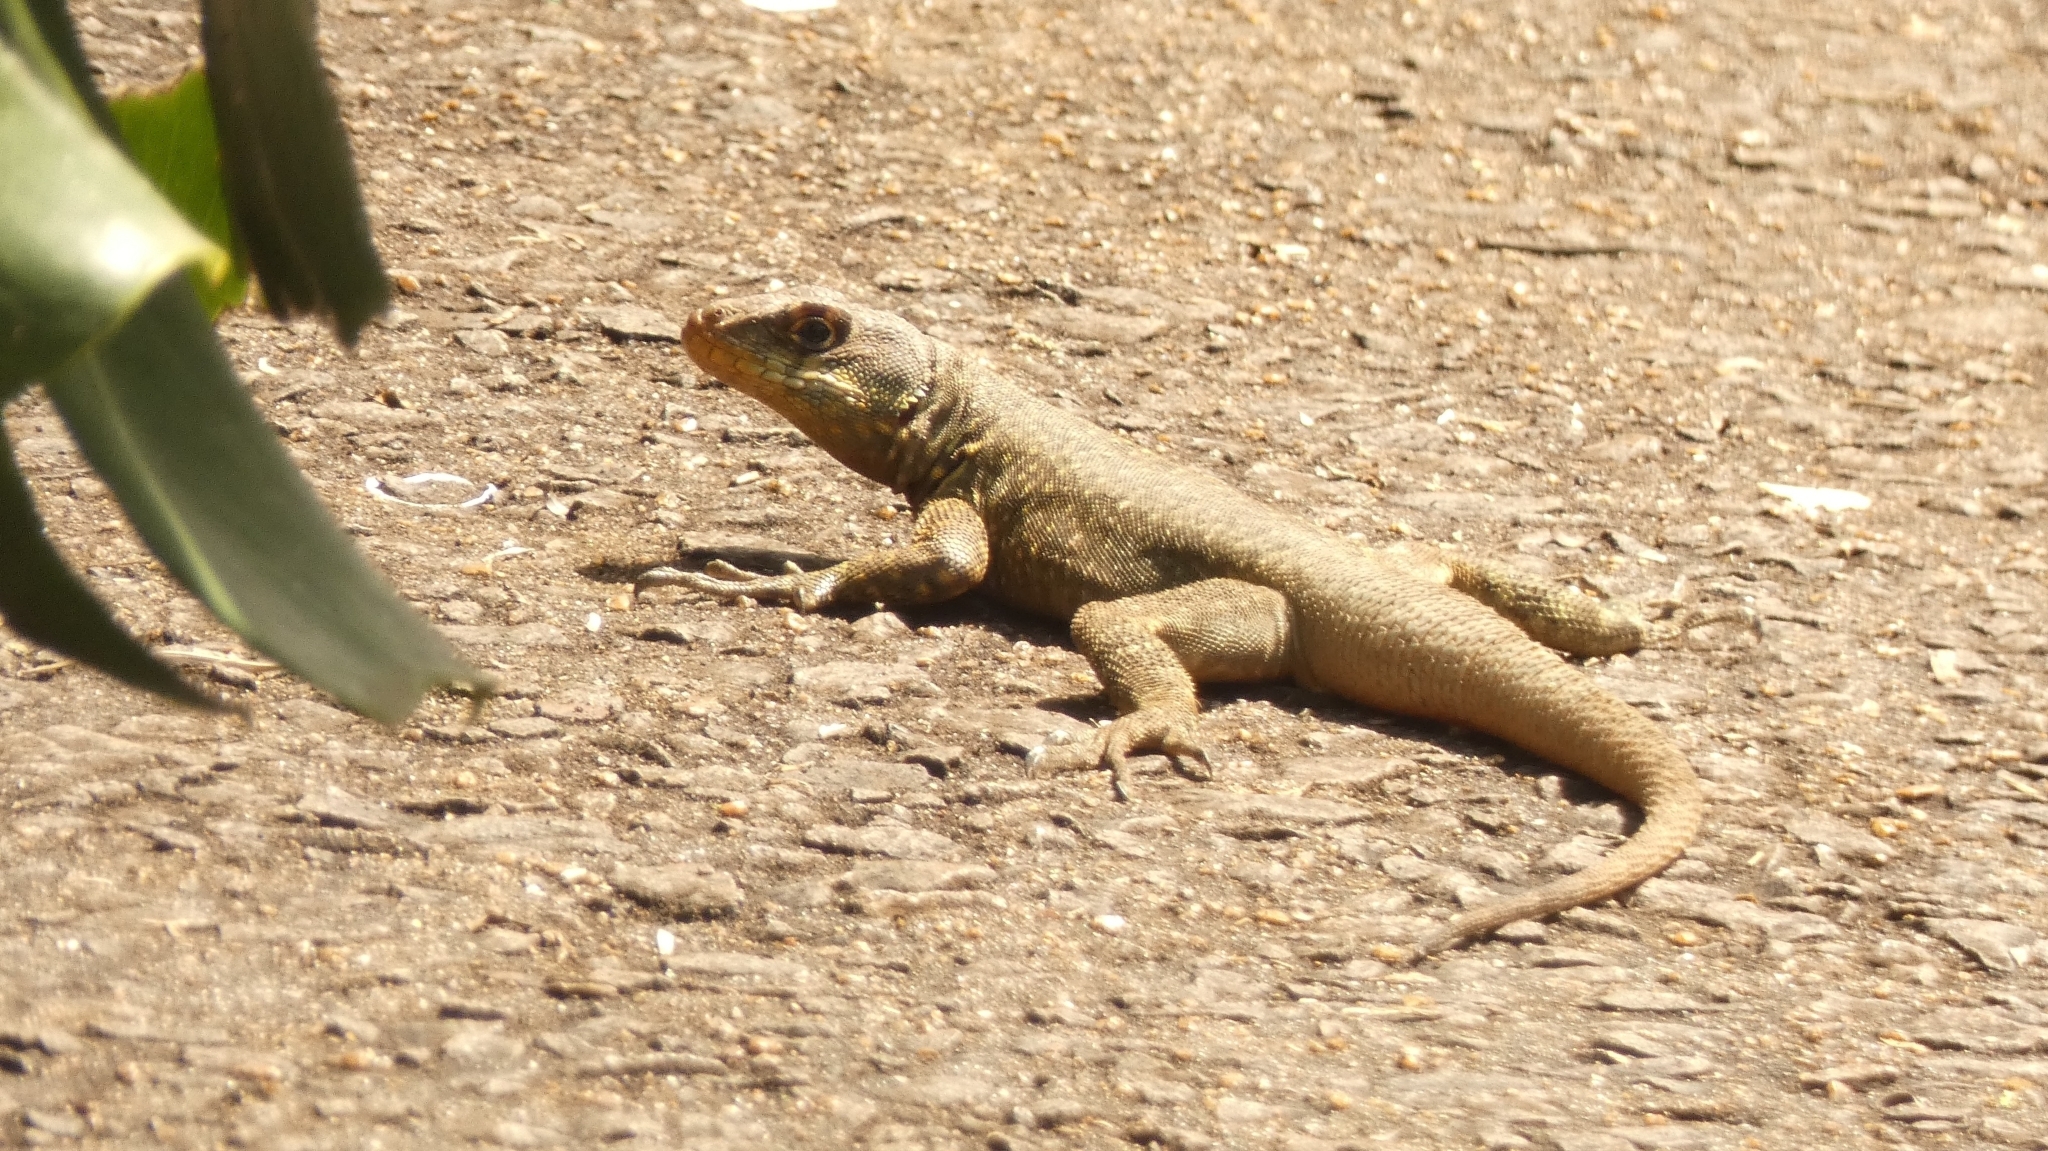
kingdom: Animalia
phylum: Chordata
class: Squamata
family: Tropiduridae
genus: Tropidurus
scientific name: Tropidurus catalanensis
